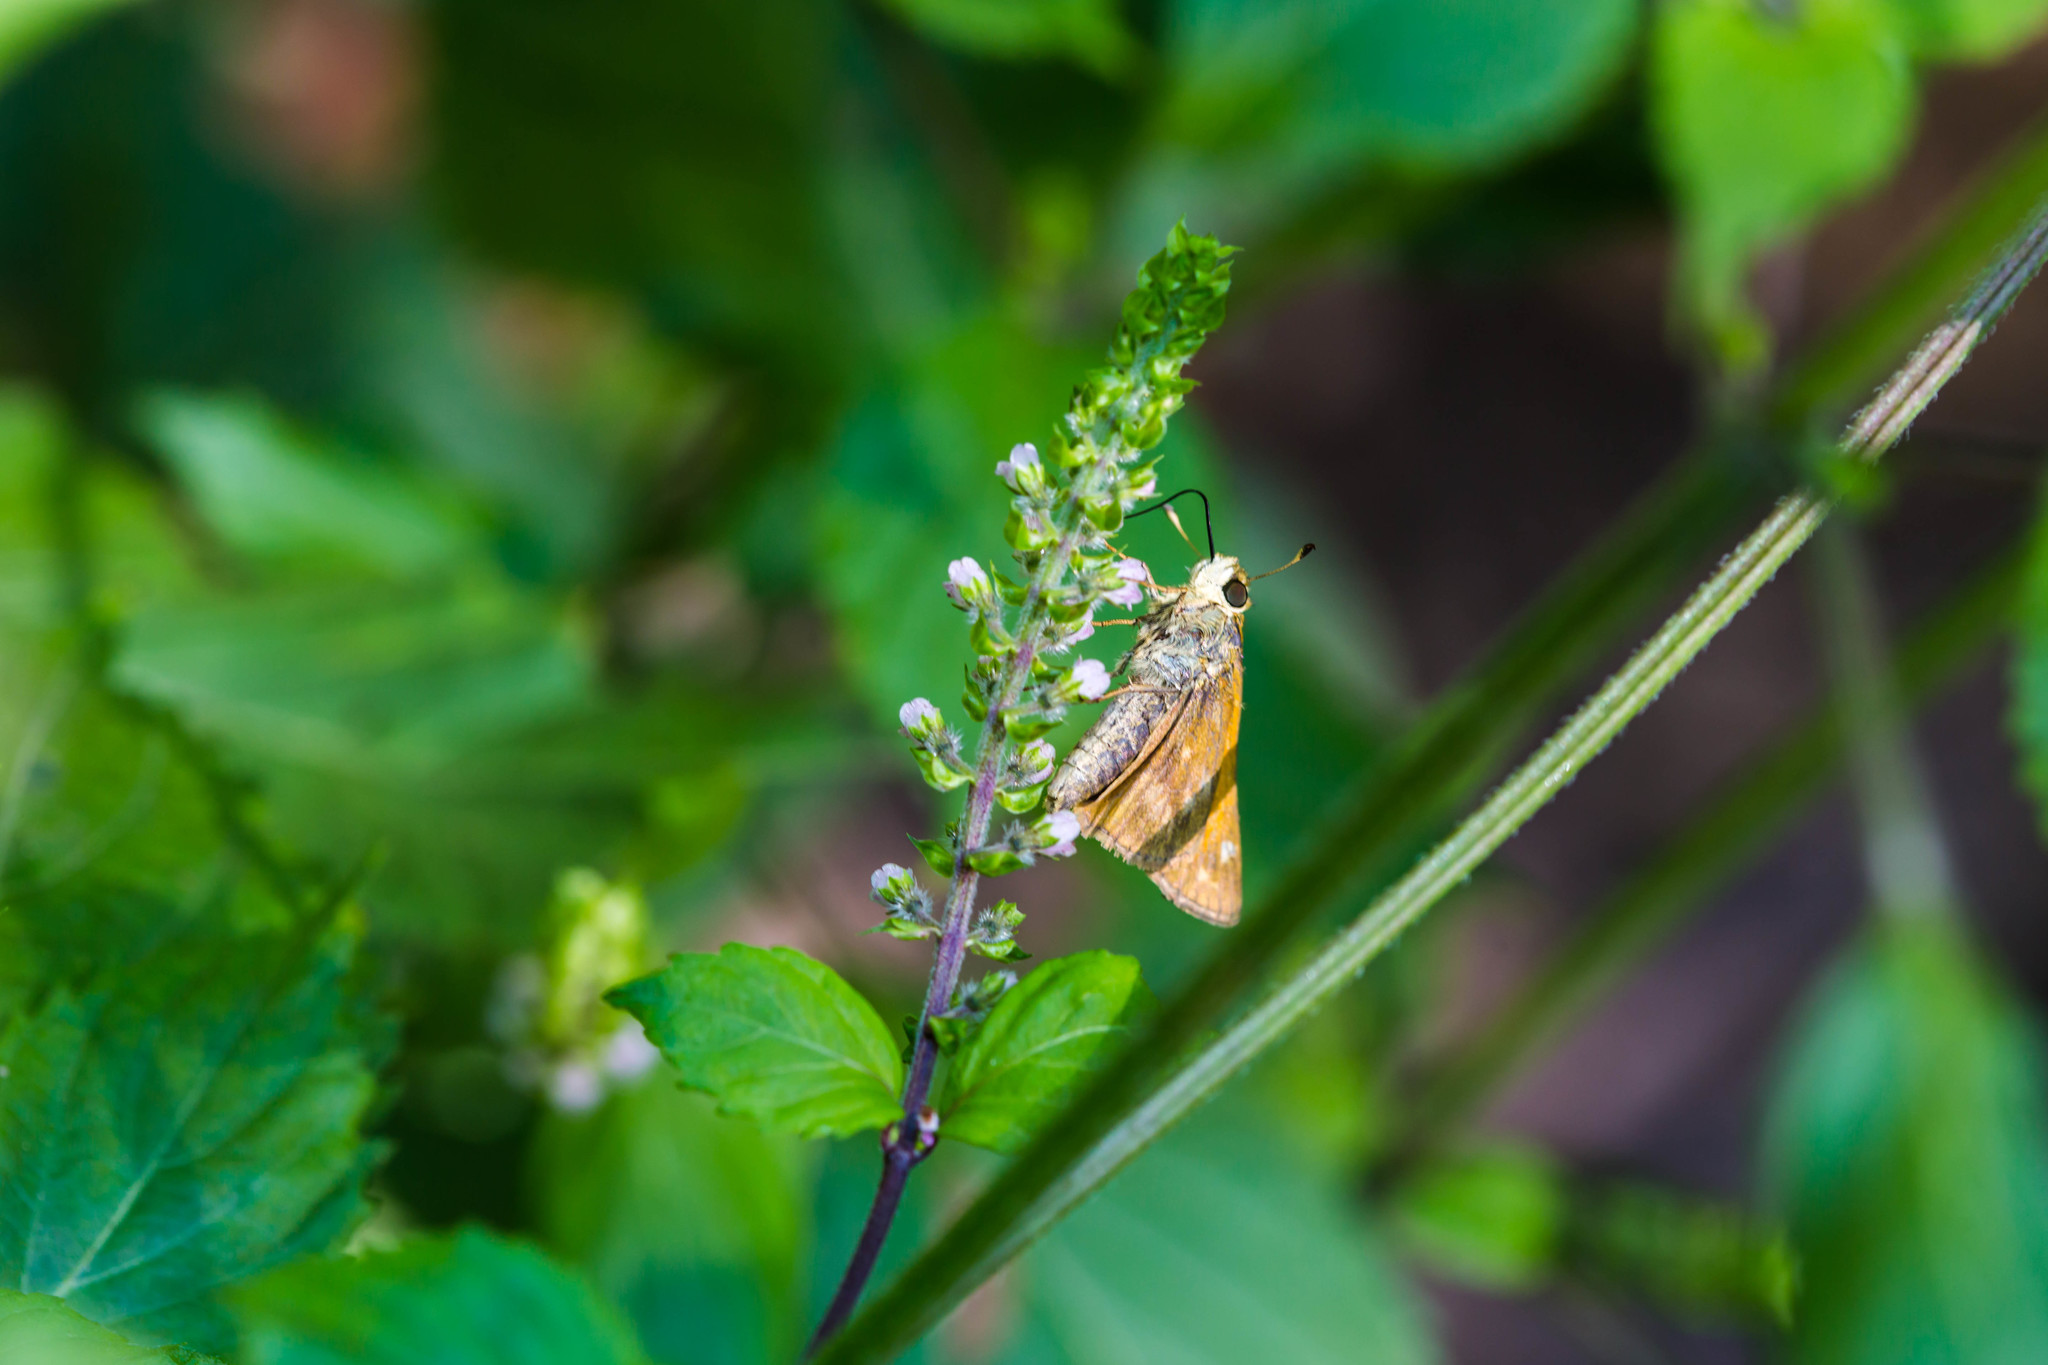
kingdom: Animalia
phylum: Arthropoda
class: Insecta
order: Lepidoptera
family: Hesperiidae
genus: Atalopedes
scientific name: Atalopedes
